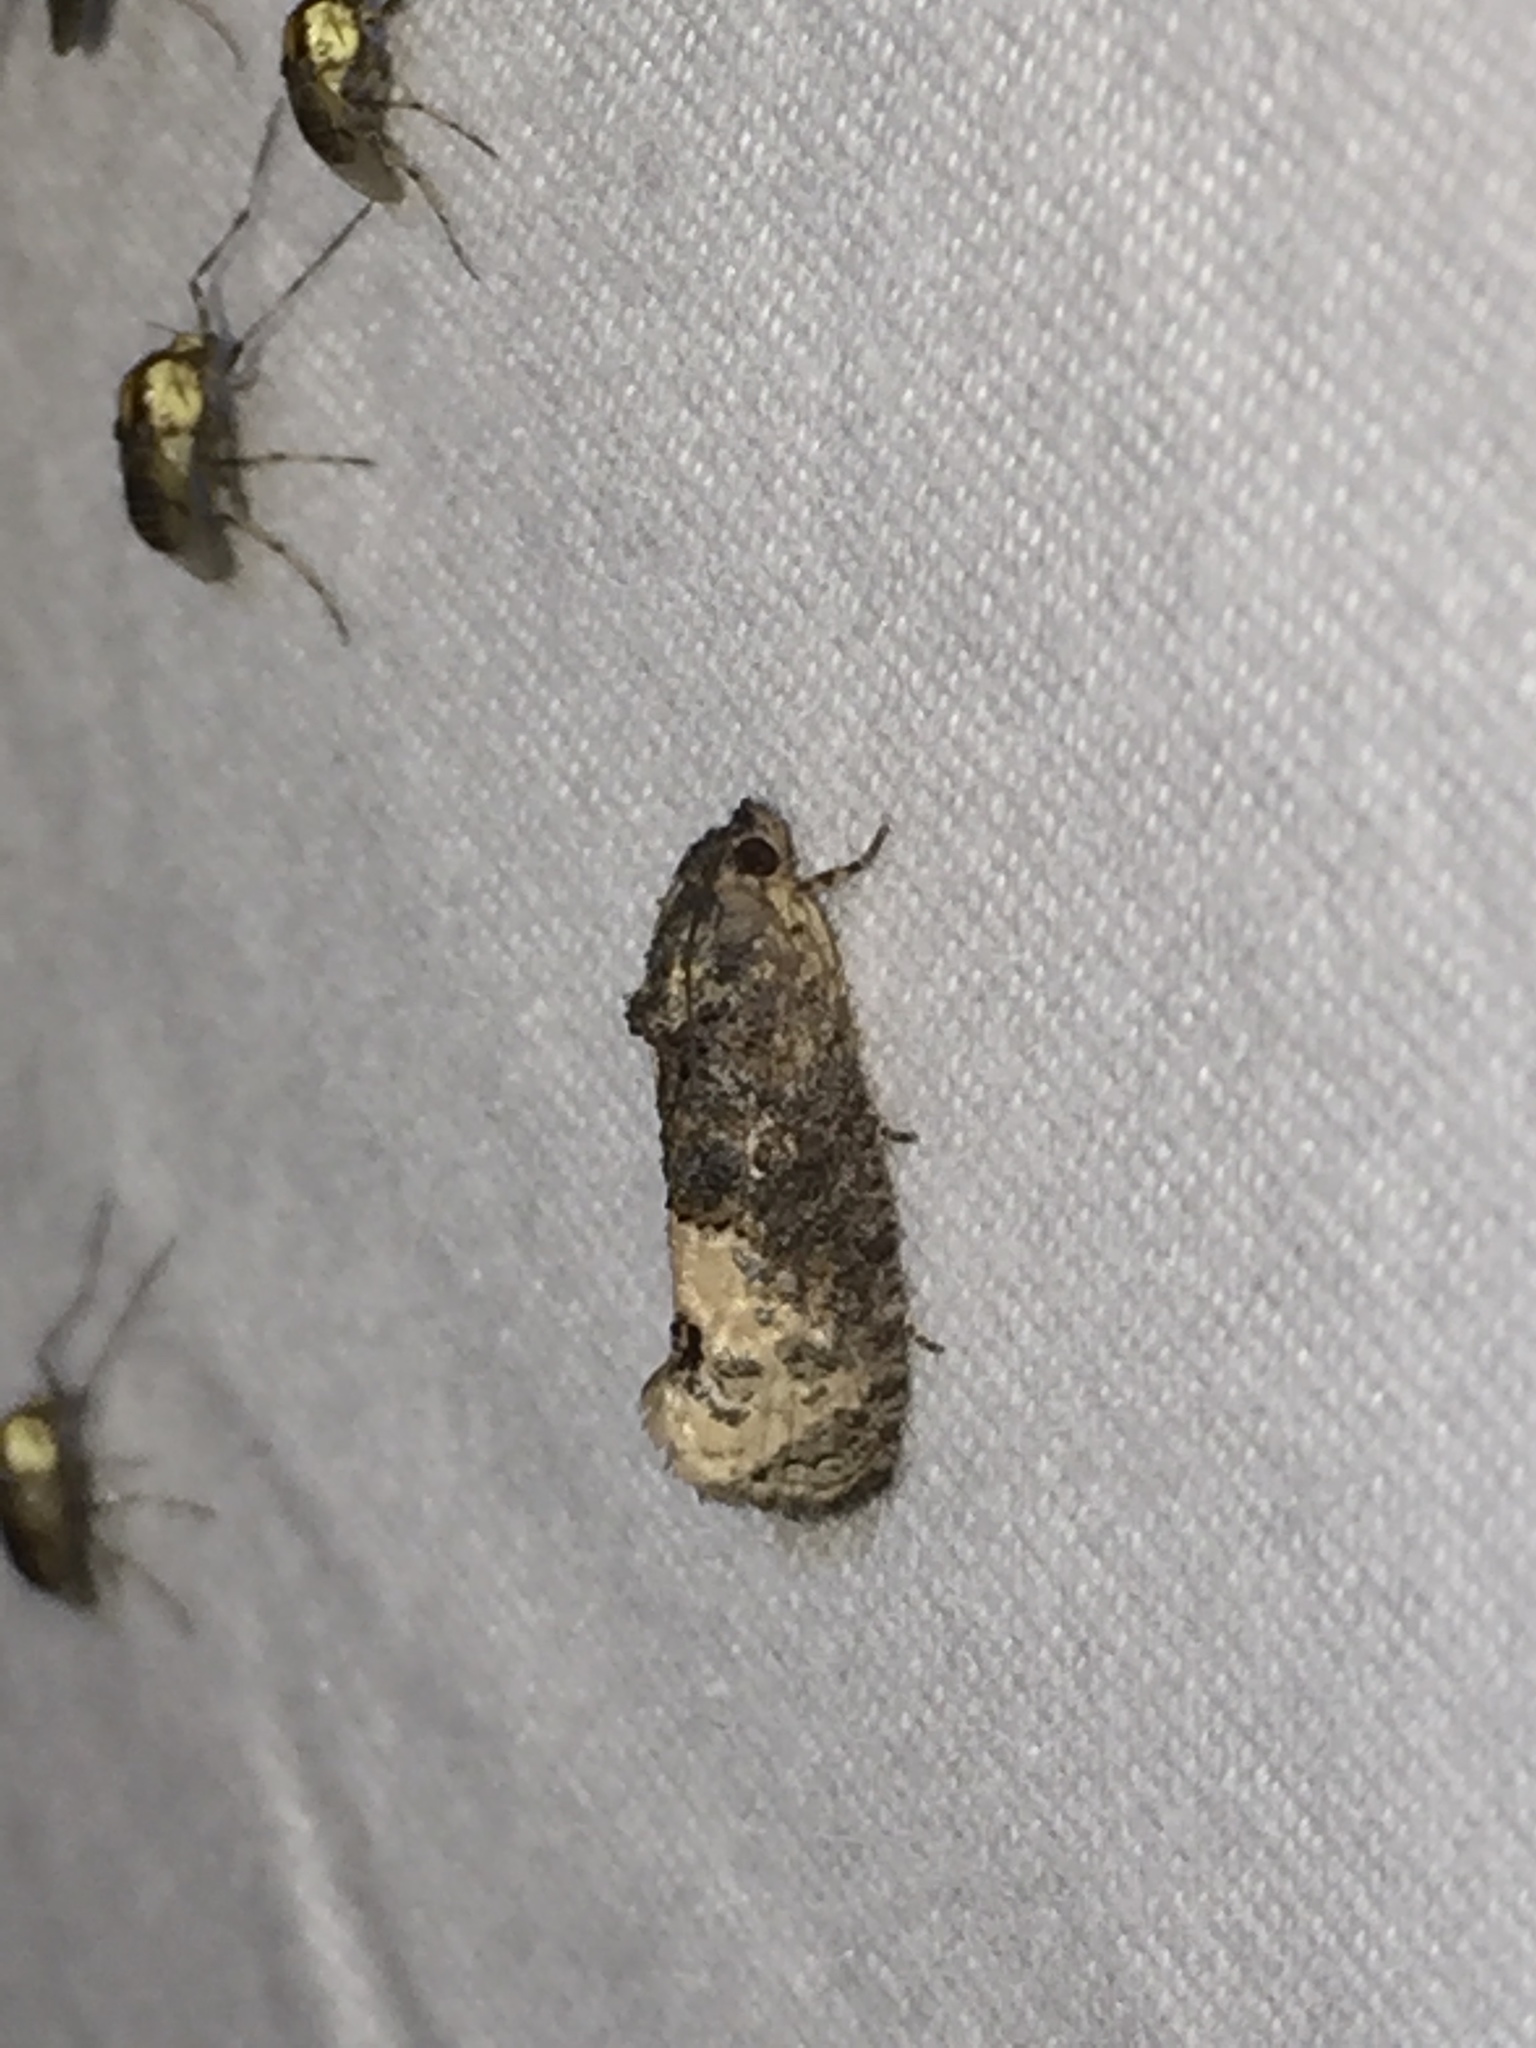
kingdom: Animalia
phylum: Arthropoda
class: Insecta
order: Lepidoptera
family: Tortricidae
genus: Ecdytolopha
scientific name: Ecdytolopha insiticiana
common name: Locust twig borer moth
